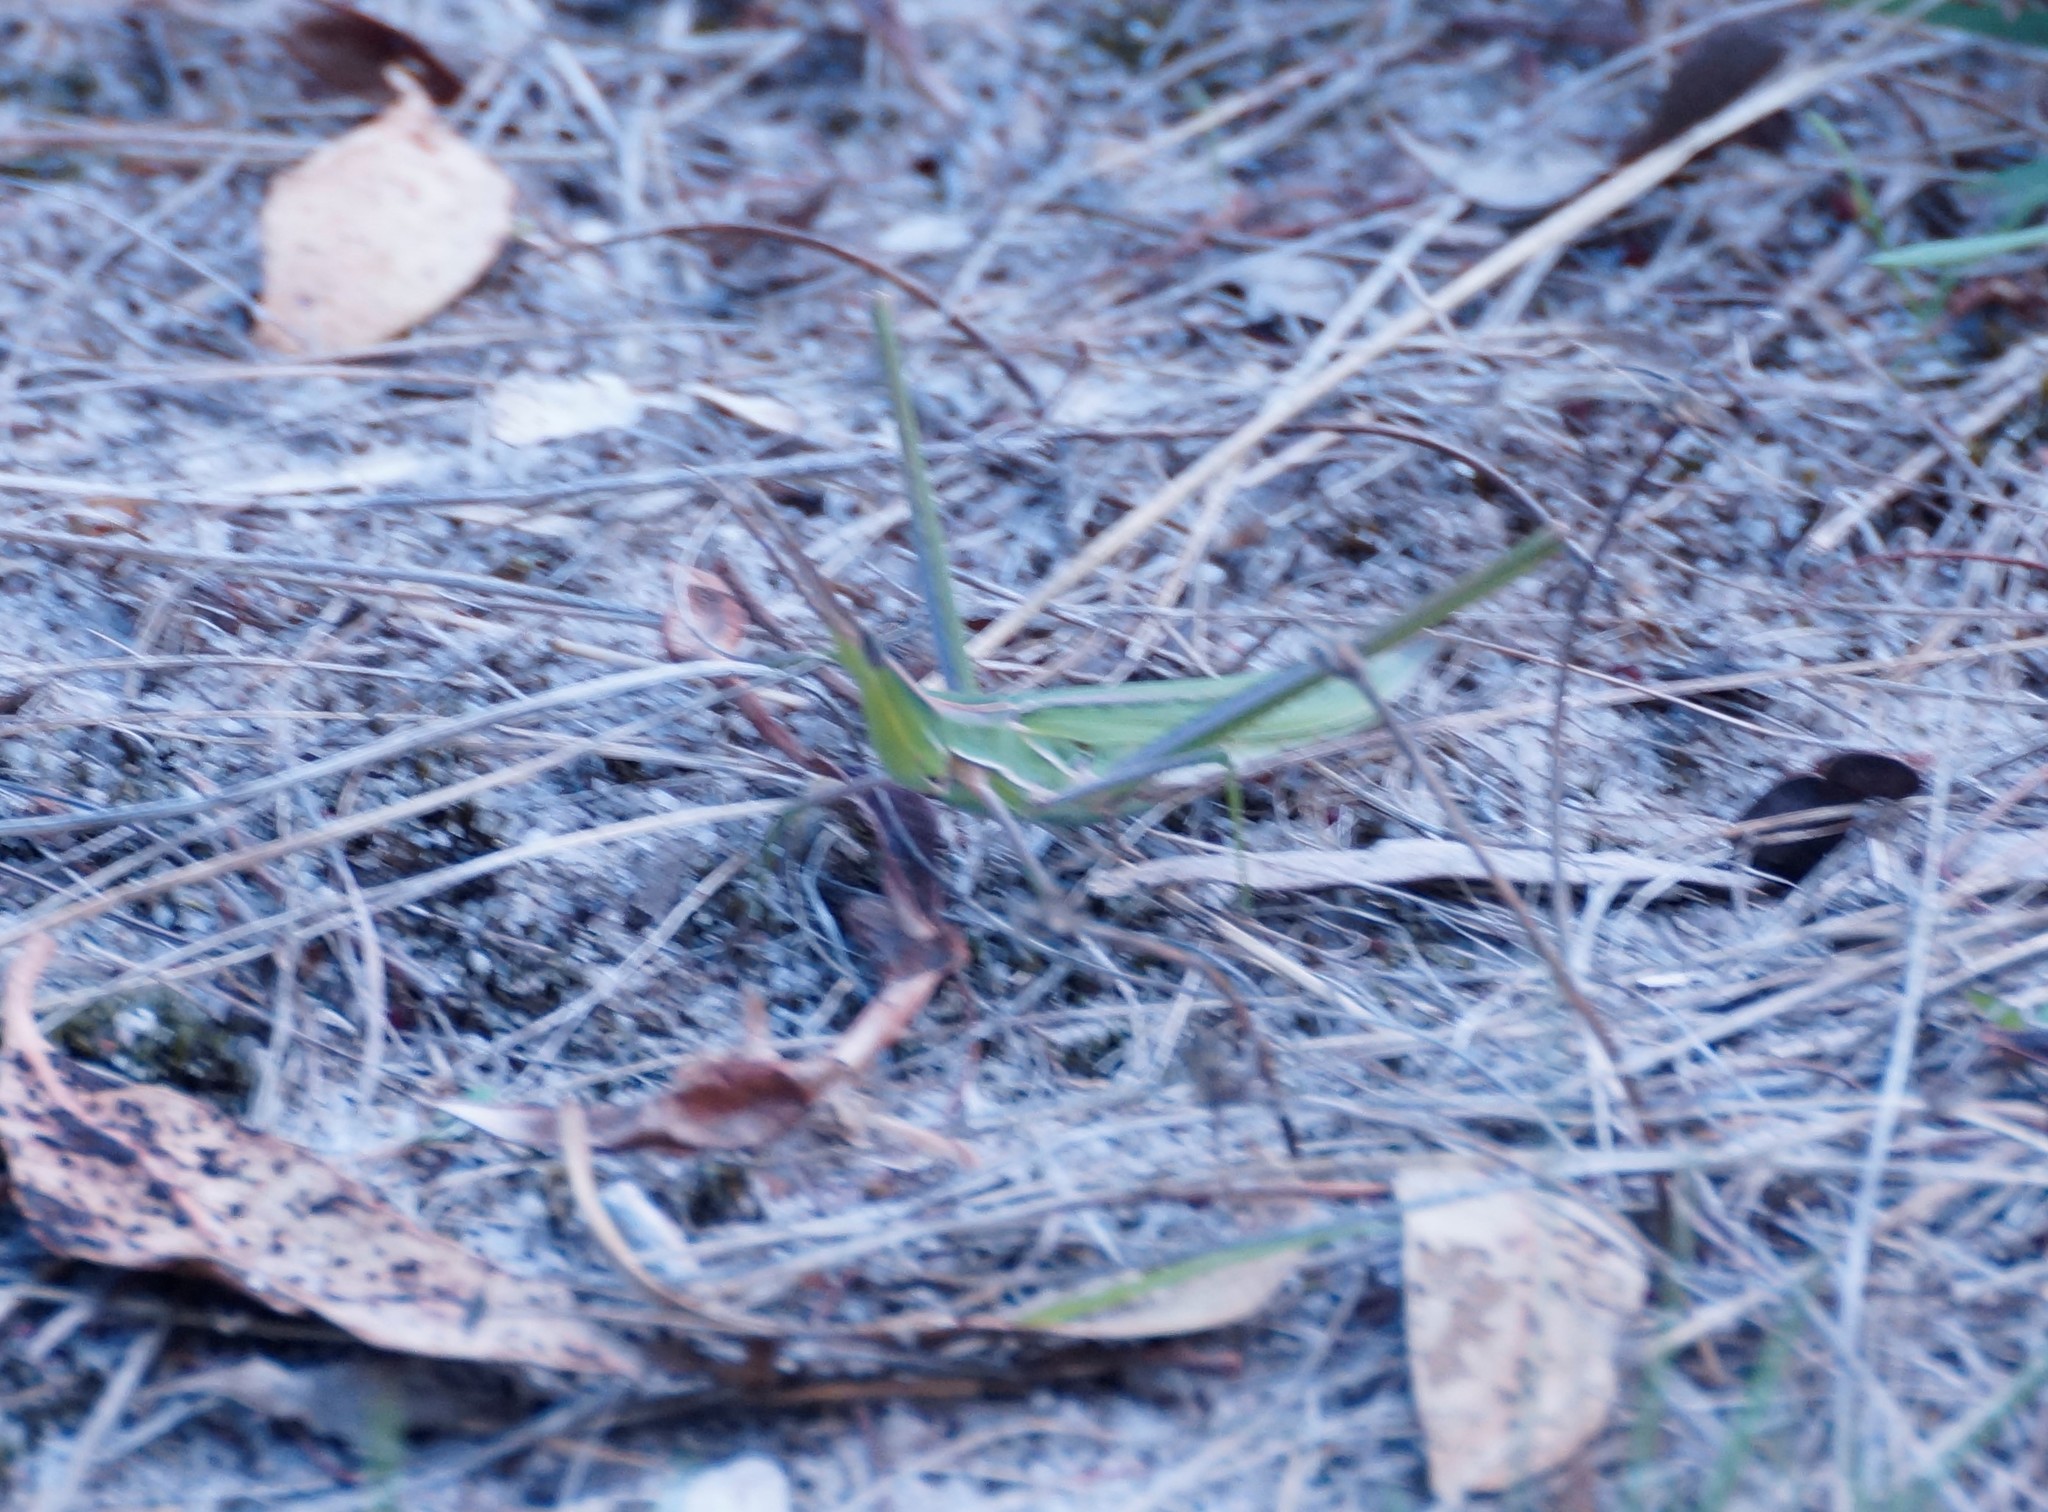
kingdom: Animalia
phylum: Arthropoda
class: Insecta
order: Orthoptera
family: Acrididae
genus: Acrida
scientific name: Acrida conica
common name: Giant green slantface
